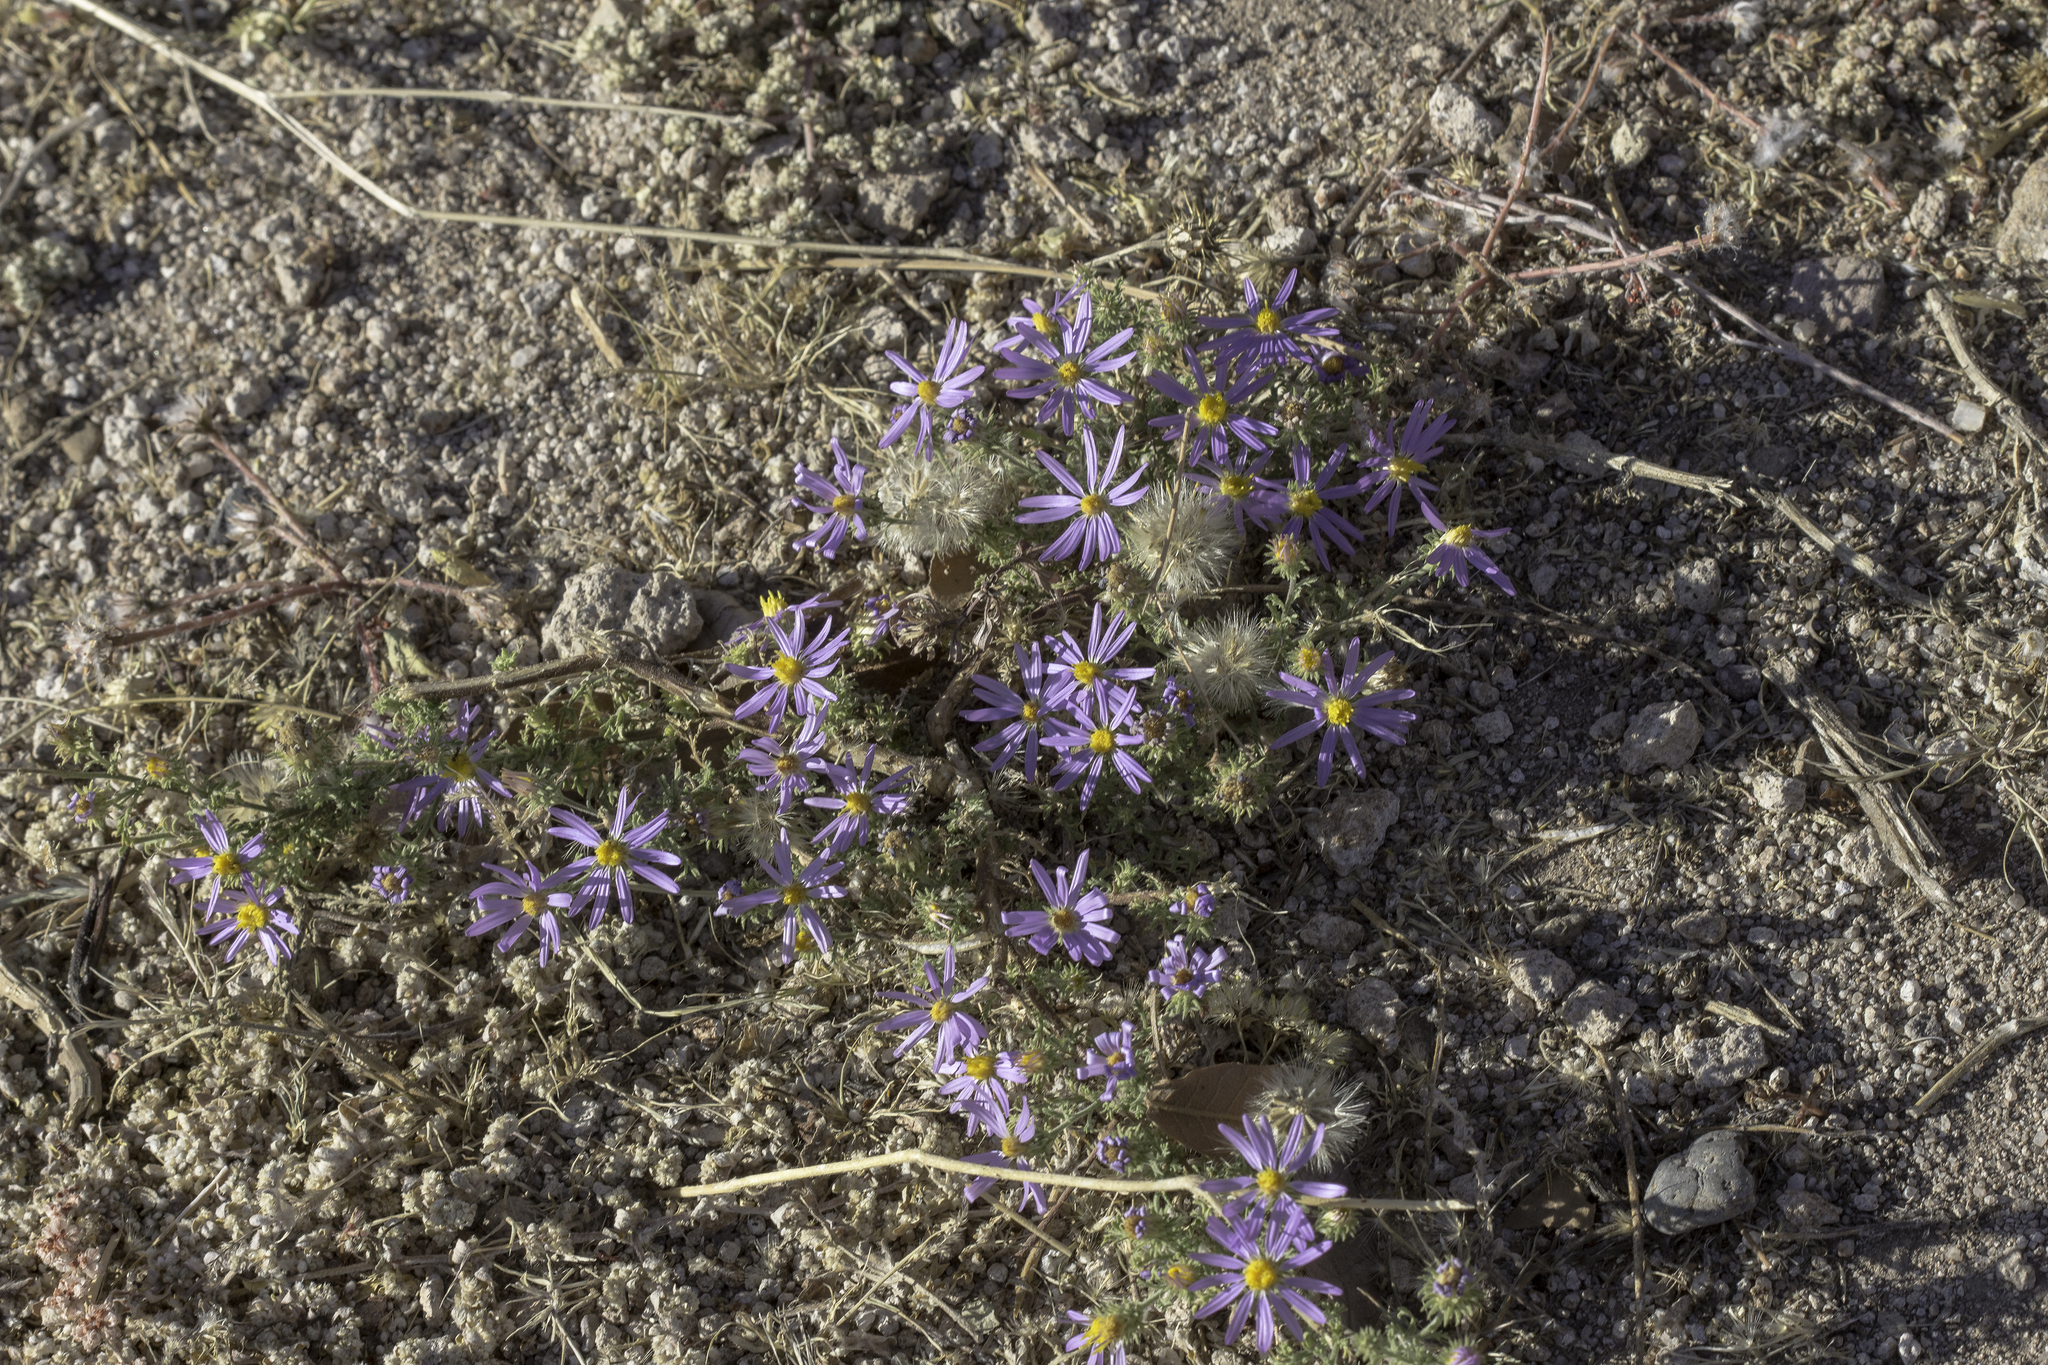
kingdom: Plantae
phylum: Tracheophyta
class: Magnoliopsida
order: Asterales
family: Asteraceae
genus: Machaeranthera
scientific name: Machaeranthera tanacetifolia
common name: Tansy-aster
